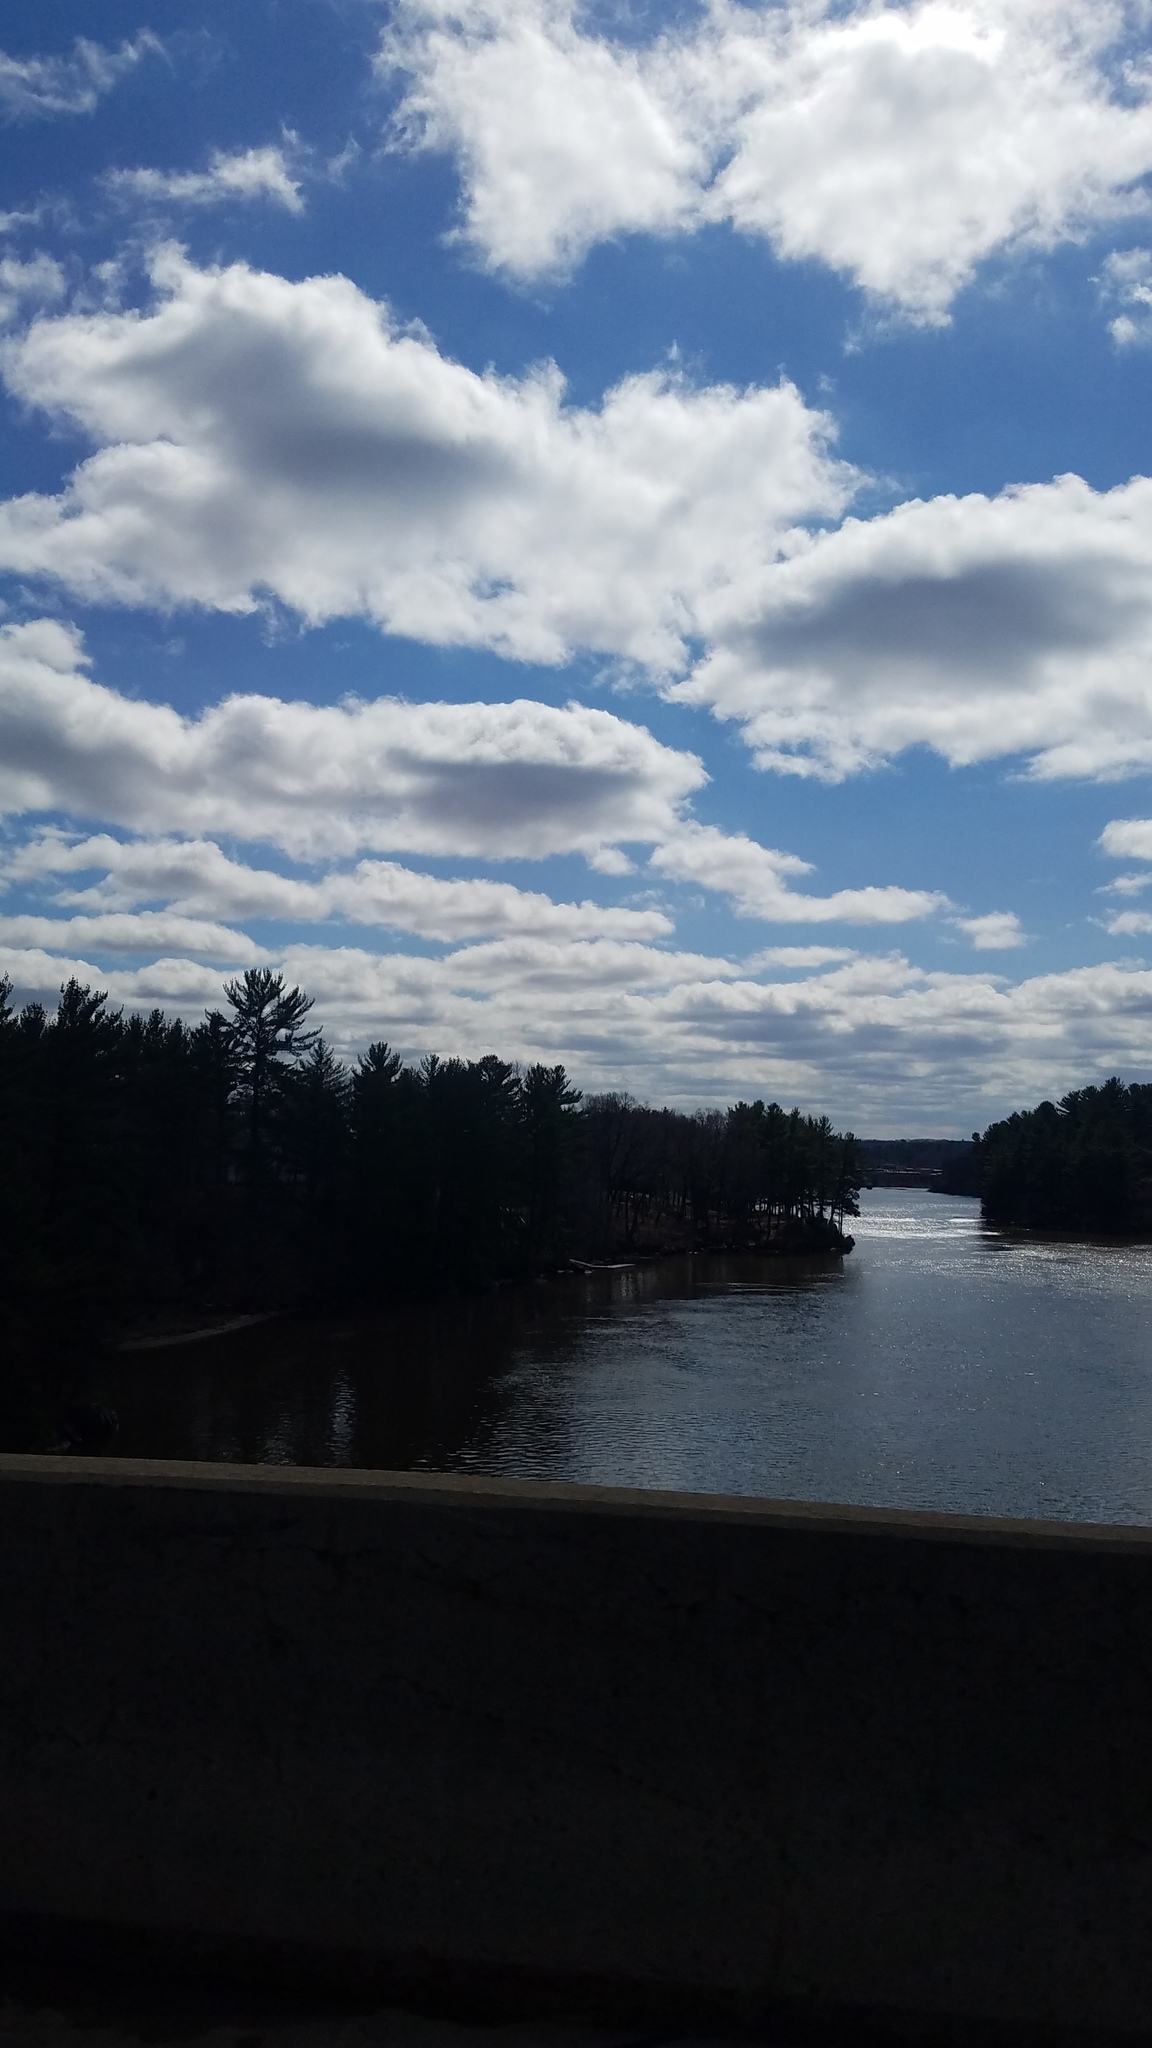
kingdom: Plantae
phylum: Tracheophyta
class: Pinopsida
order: Pinales
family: Pinaceae
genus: Pinus
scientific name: Pinus strobus
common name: Weymouth pine
